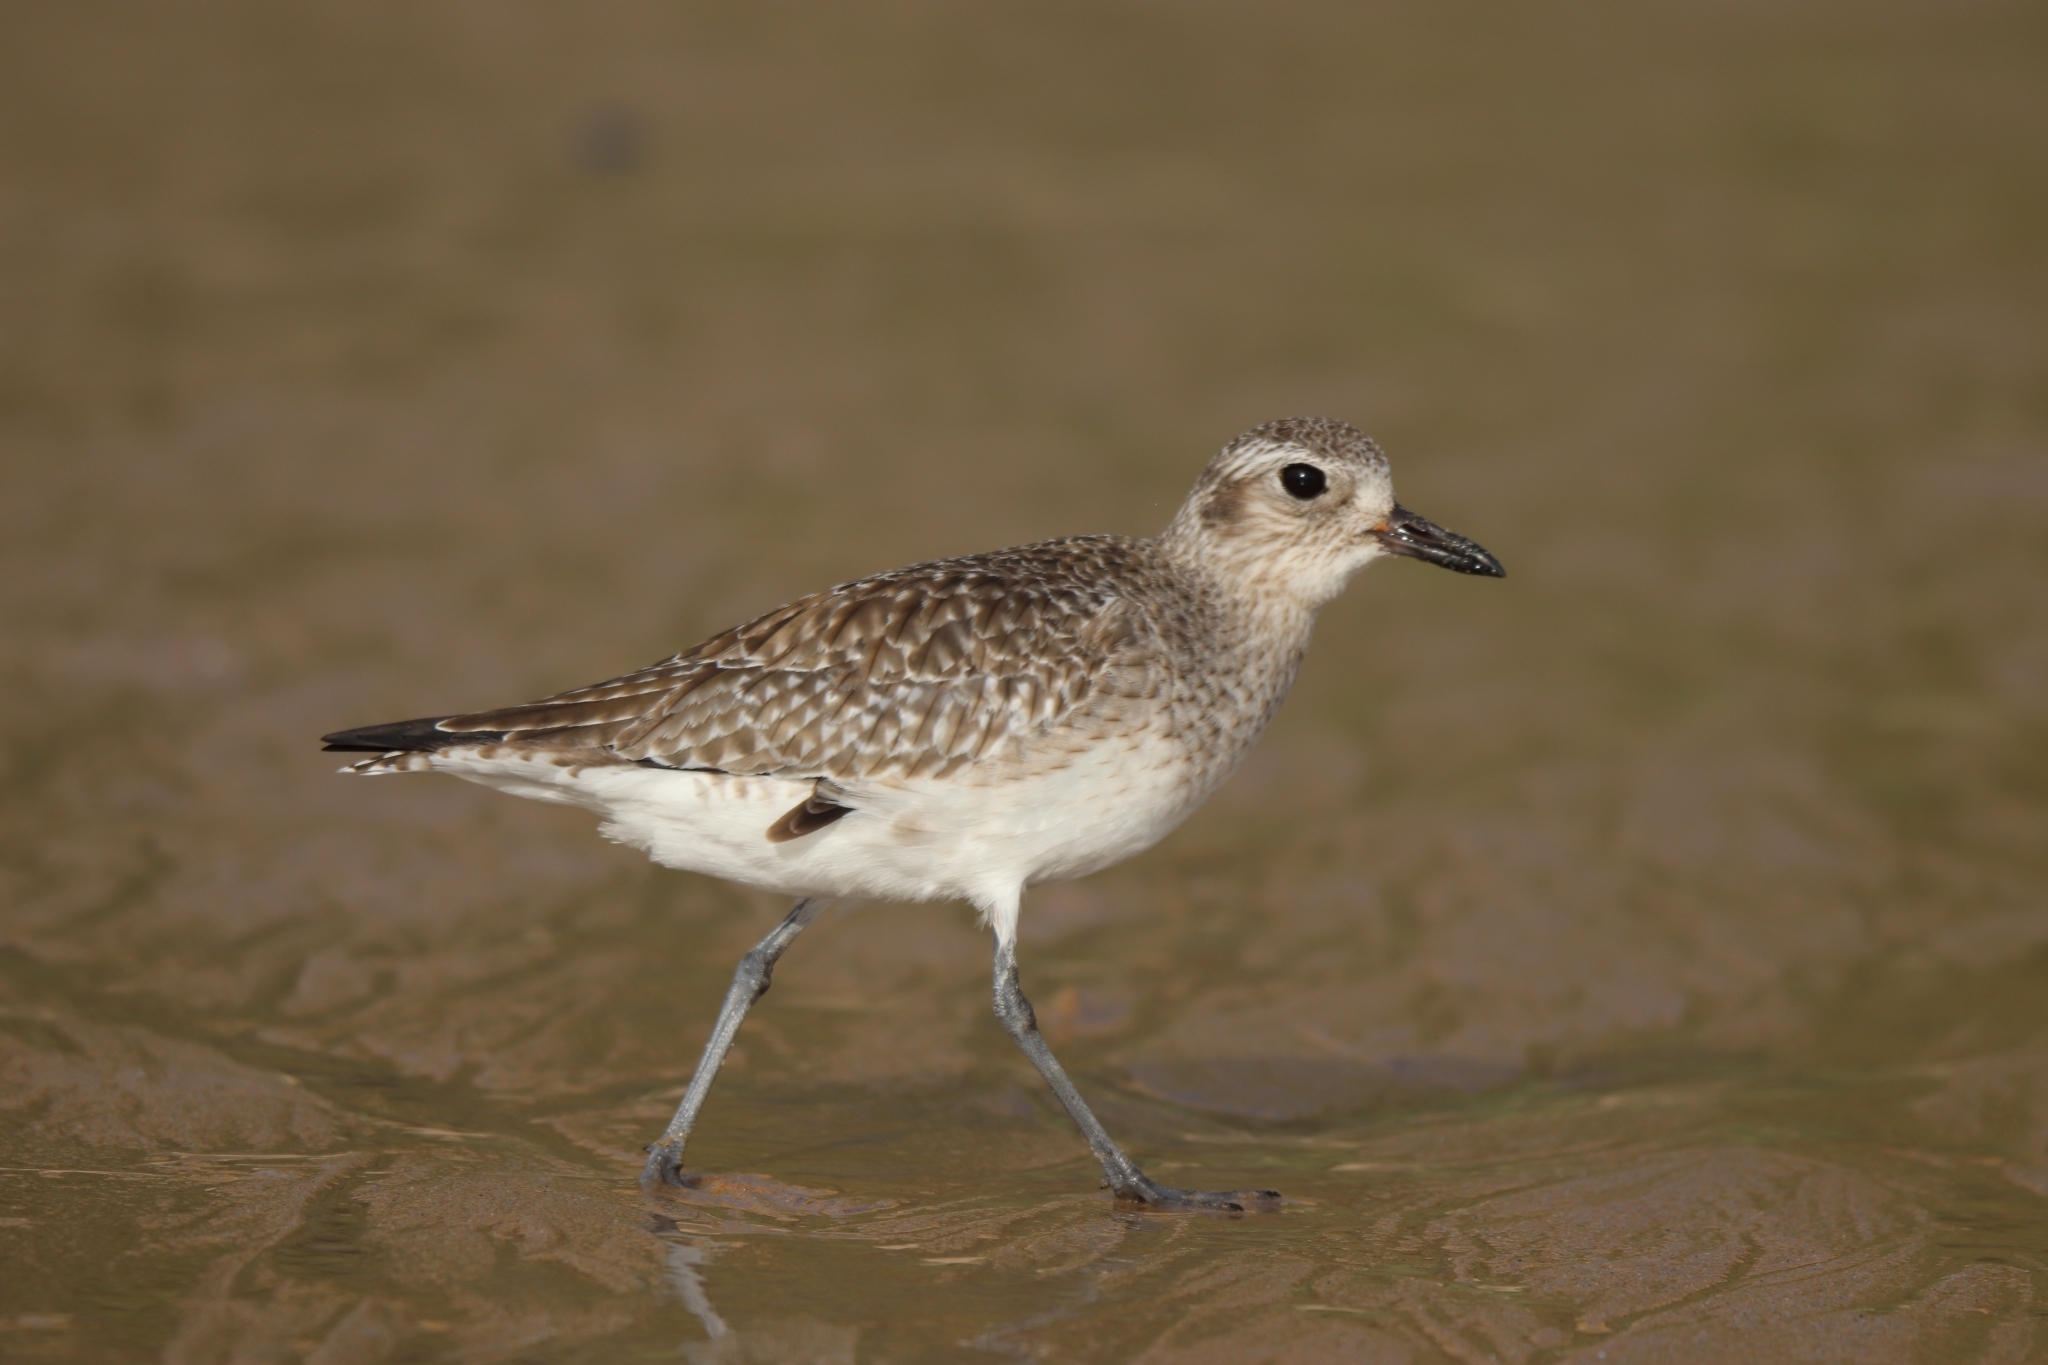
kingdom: Animalia
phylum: Chordata
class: Aves
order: Charadriiformes
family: Charadriidae
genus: Pluvialis
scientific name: Pluvialis squatarola
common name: Grey plover
